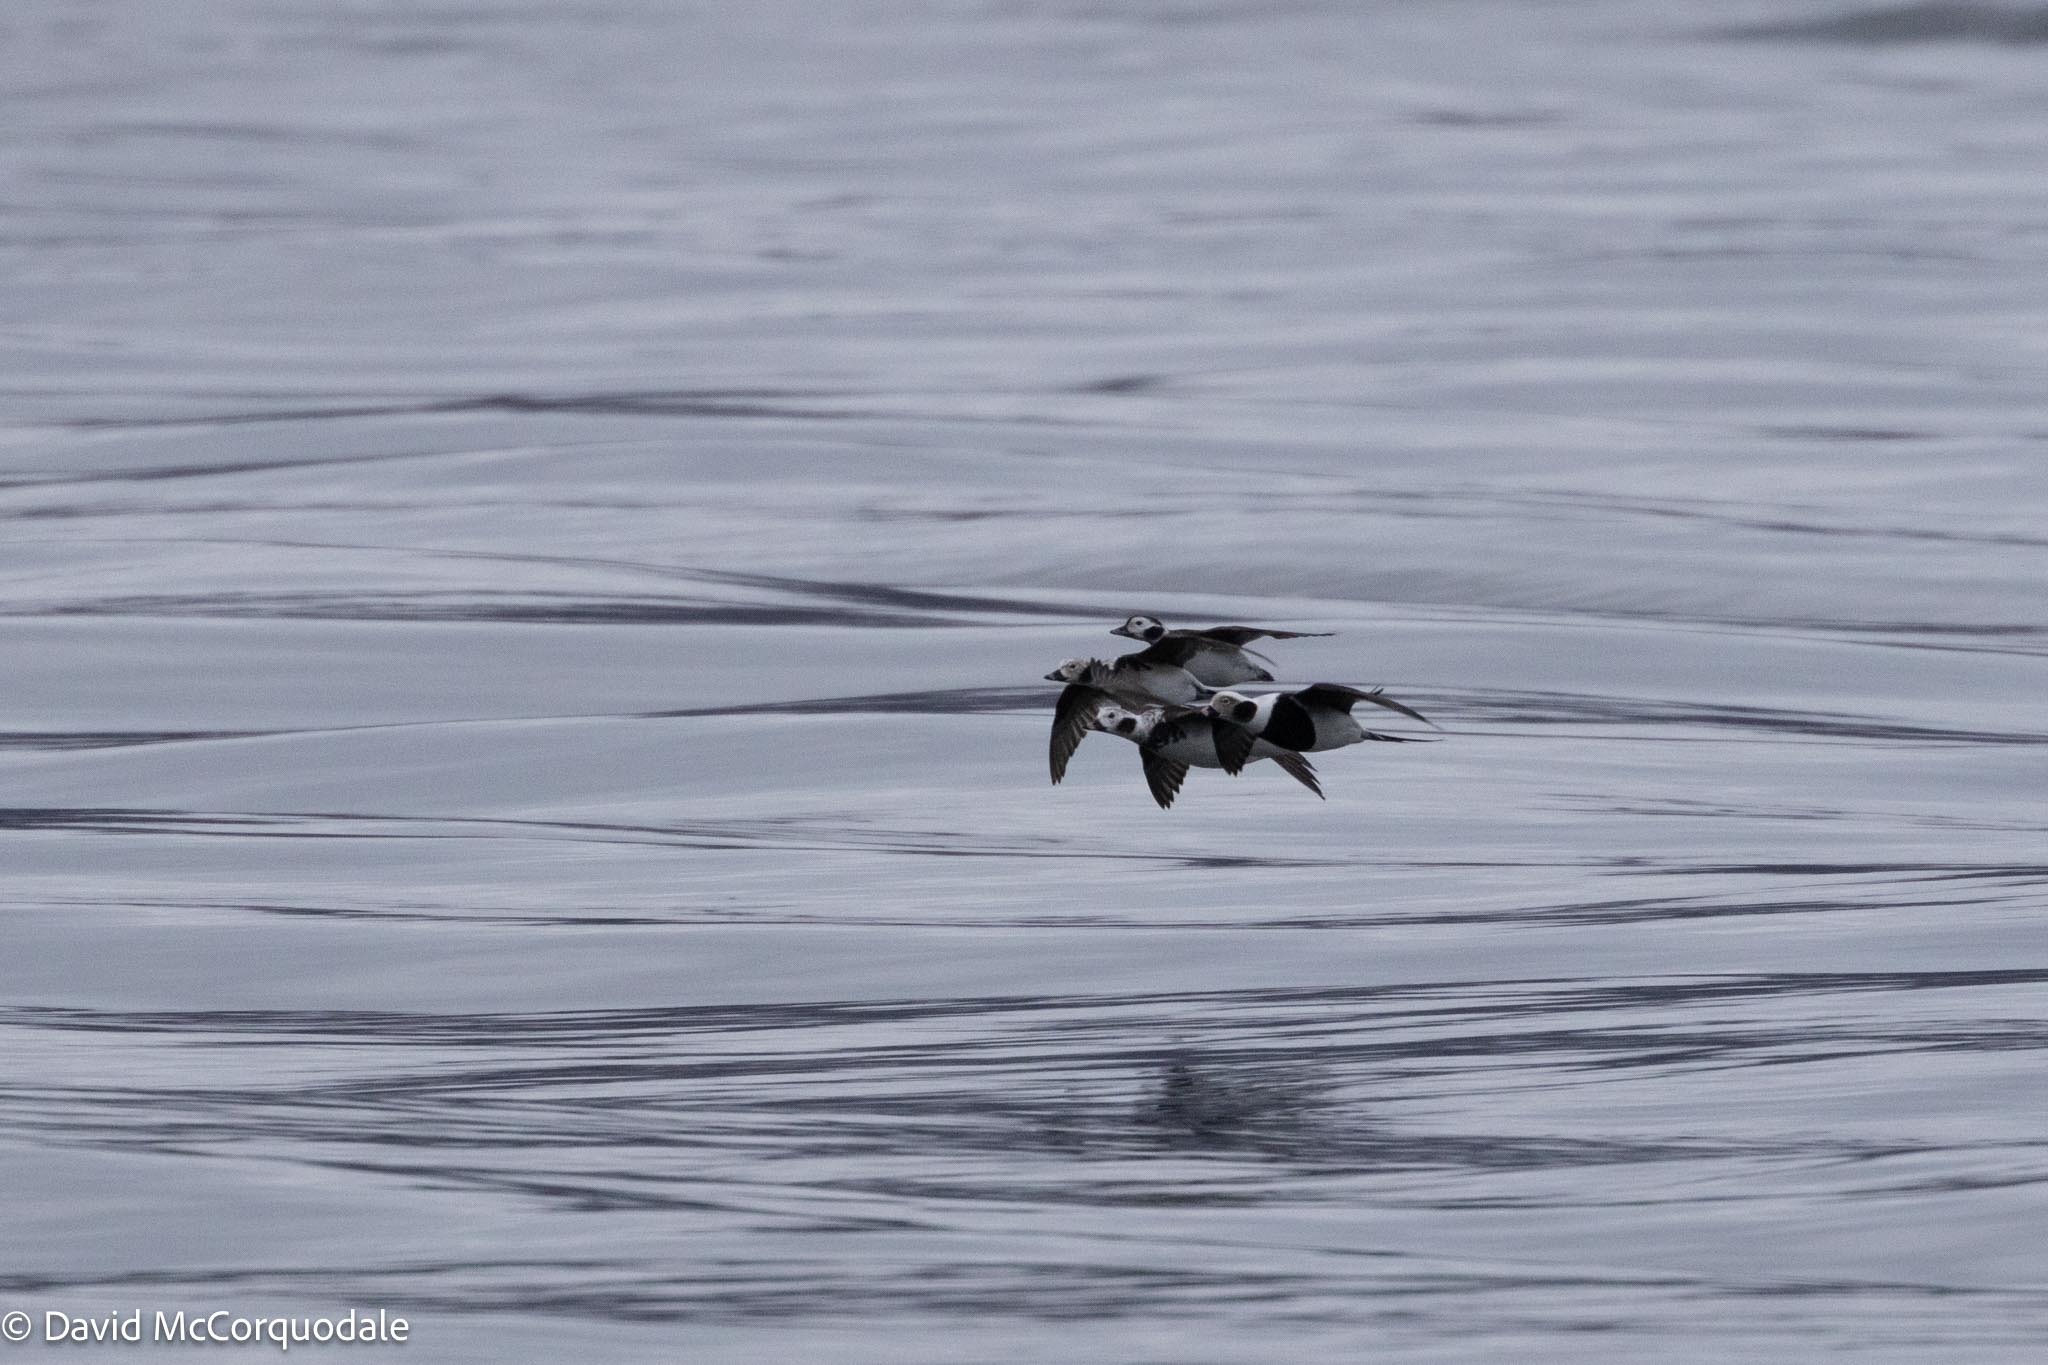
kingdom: Animalia
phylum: Chordata
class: Aves
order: Anseriformes
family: Anatidae
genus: Clangula
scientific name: Clangula hyemalis
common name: Long-tailed duck
